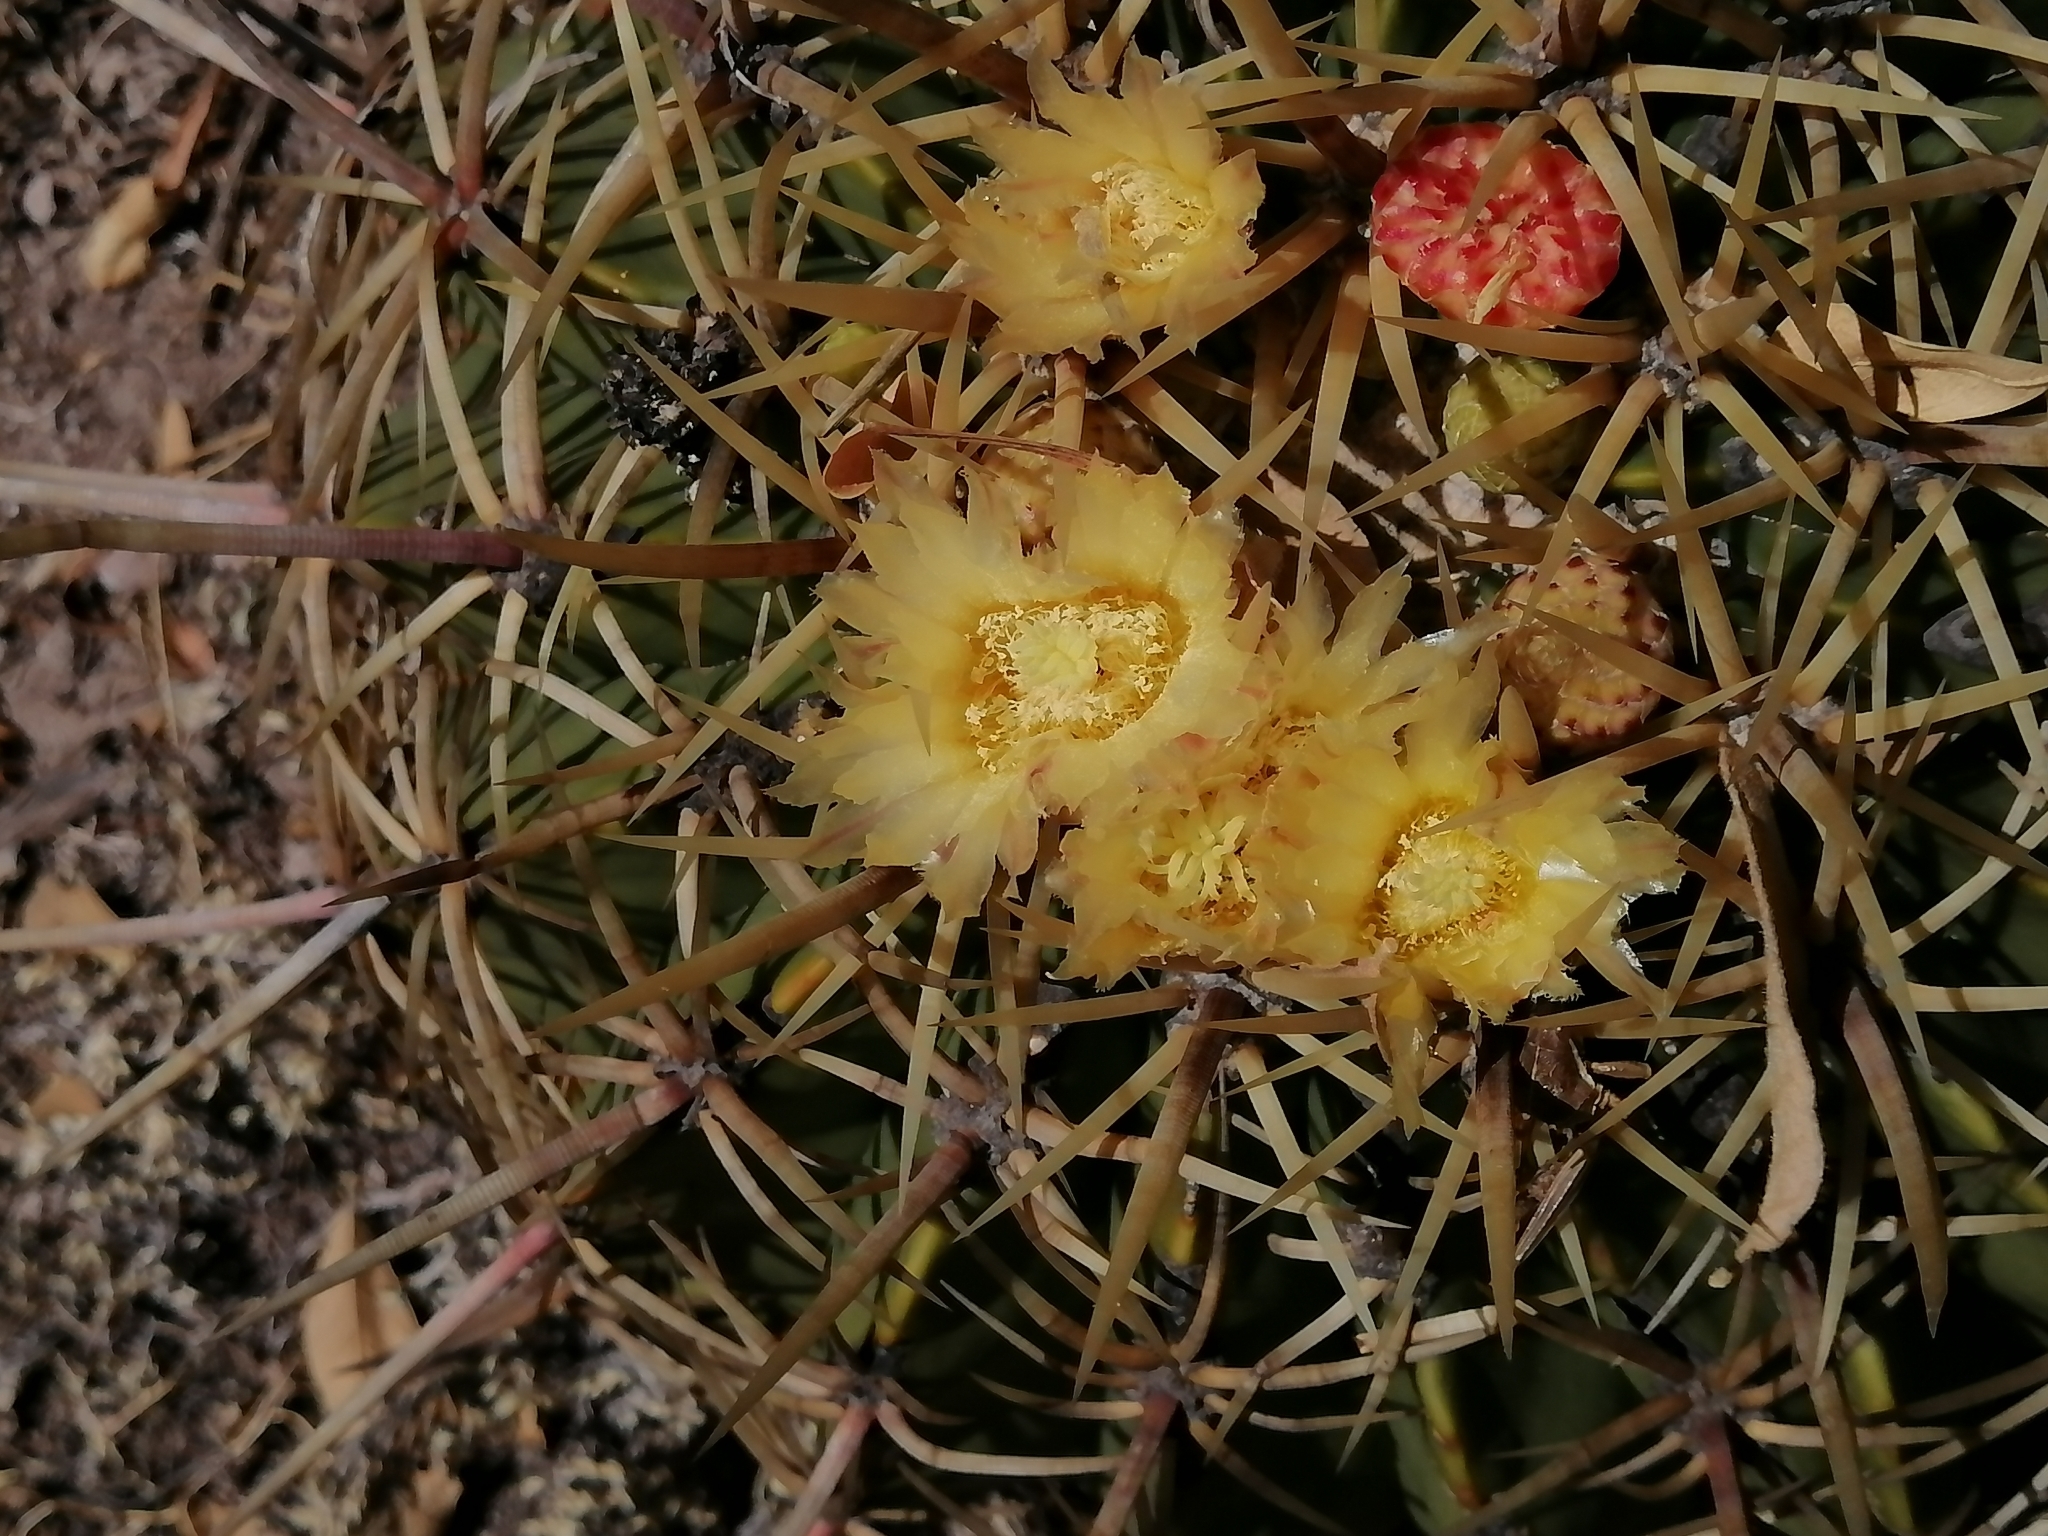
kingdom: Plantae
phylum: Tracheophyta
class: Magnoliopsida
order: Caryophyllales
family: Cactaceae
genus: Bisnaga
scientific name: Bisnaga histrix
